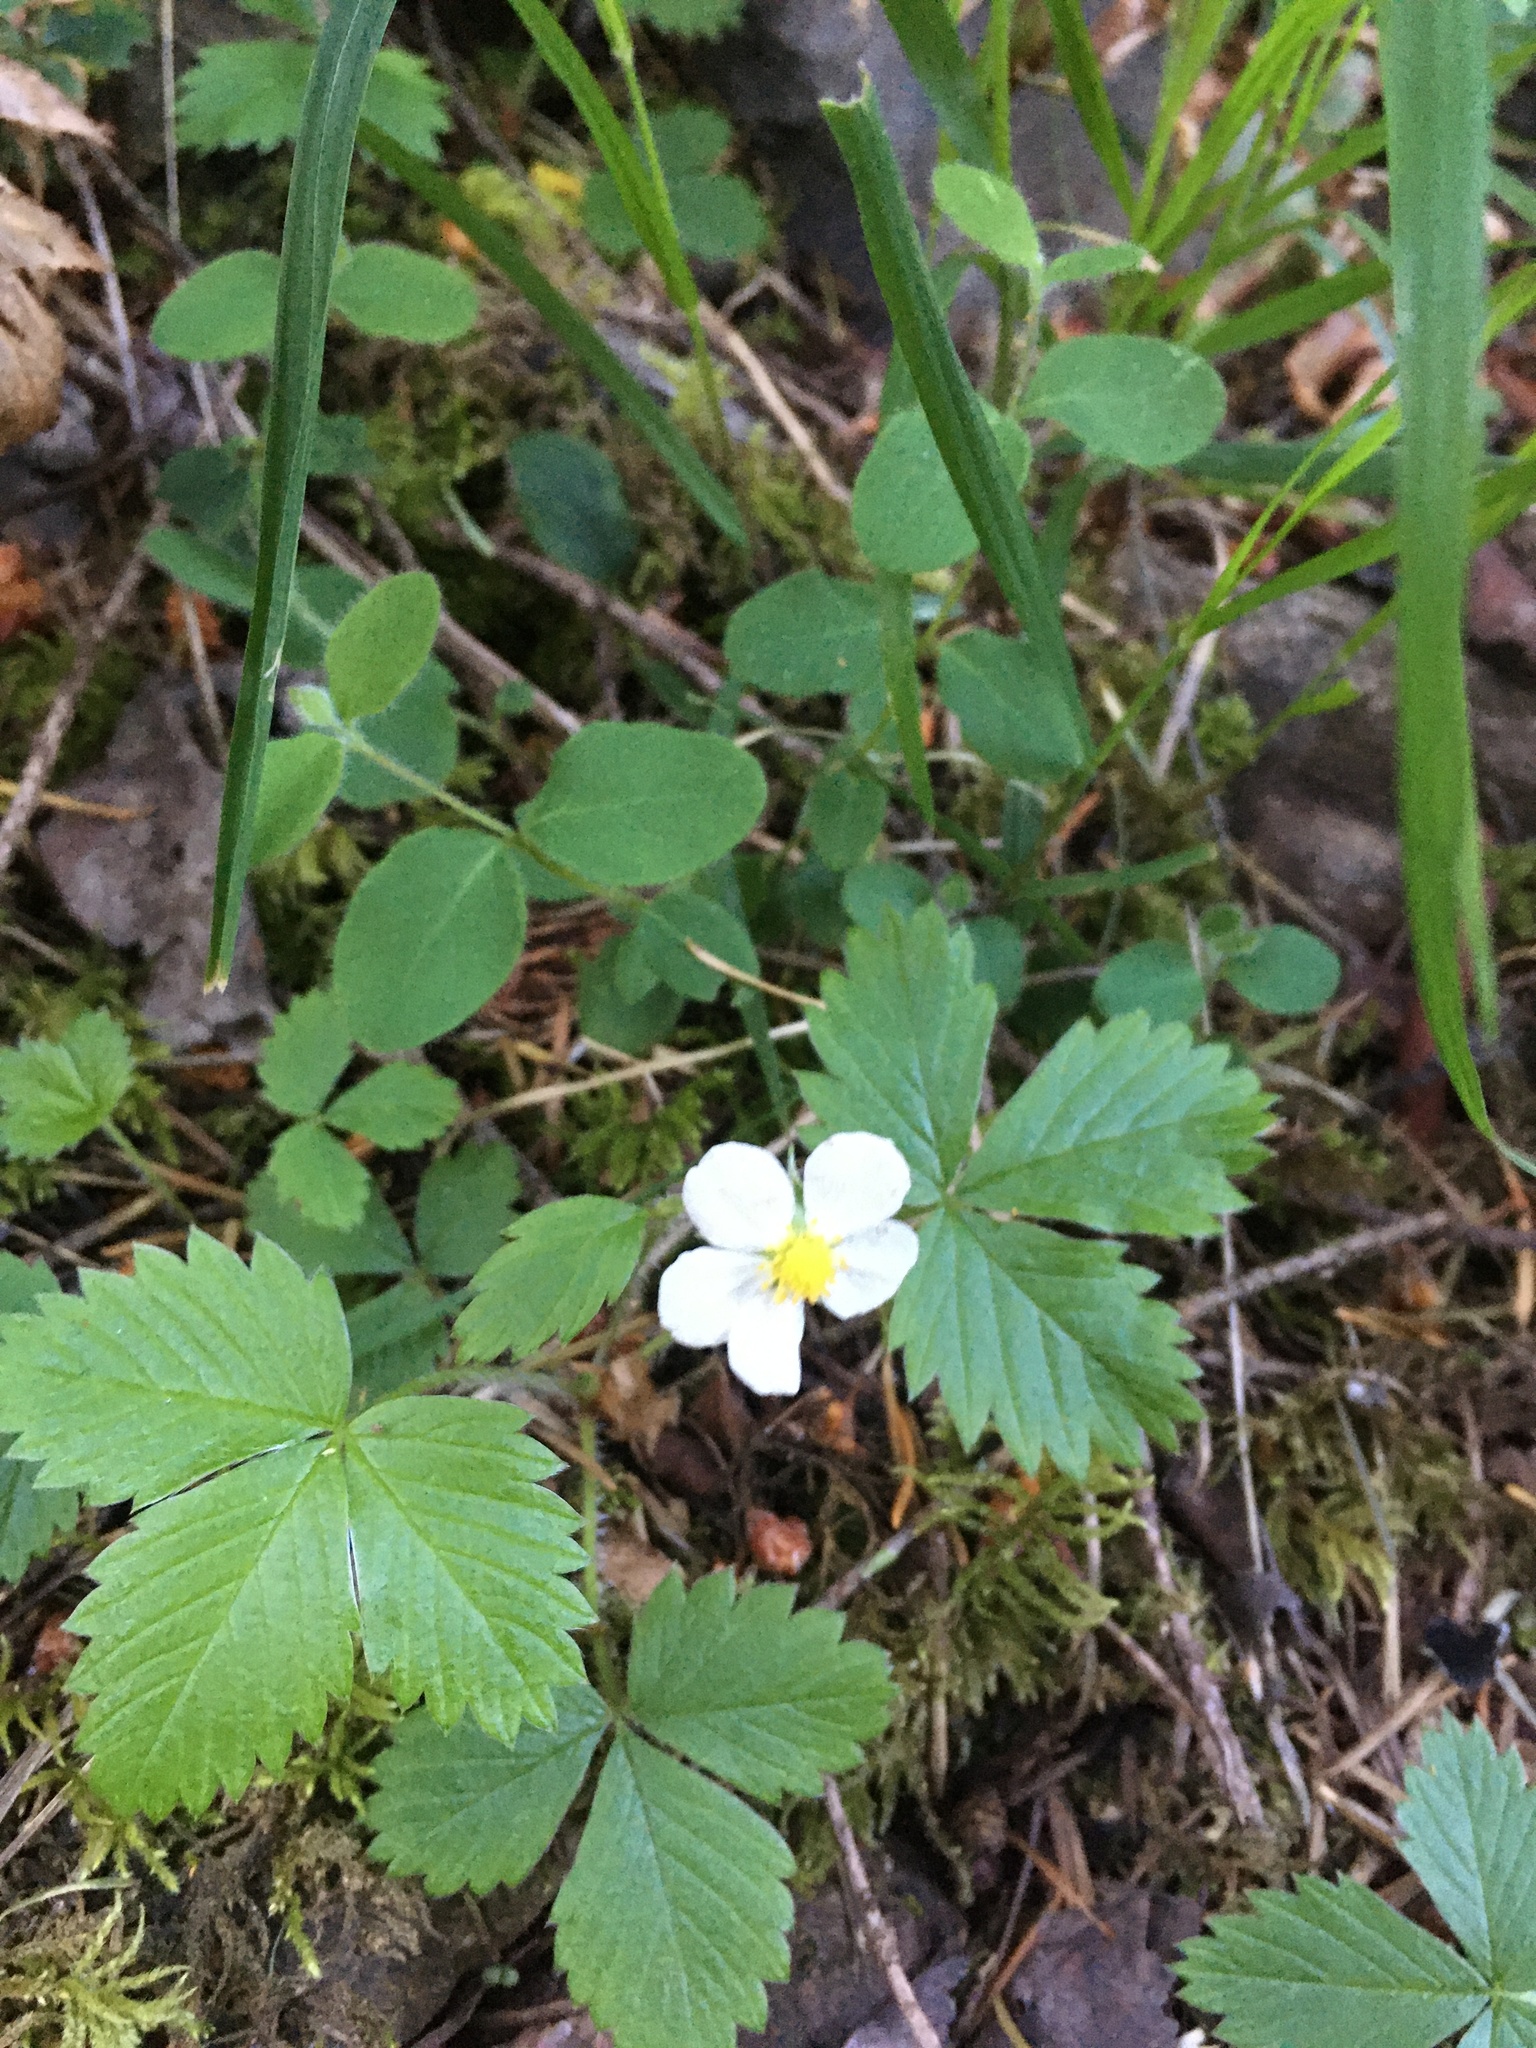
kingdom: Plantae
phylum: Tracheophyta
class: Magnoliopsida
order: Rosales
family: Rosaceae
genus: Fragaria
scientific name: Fragaria vesca
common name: Wild strawberry
